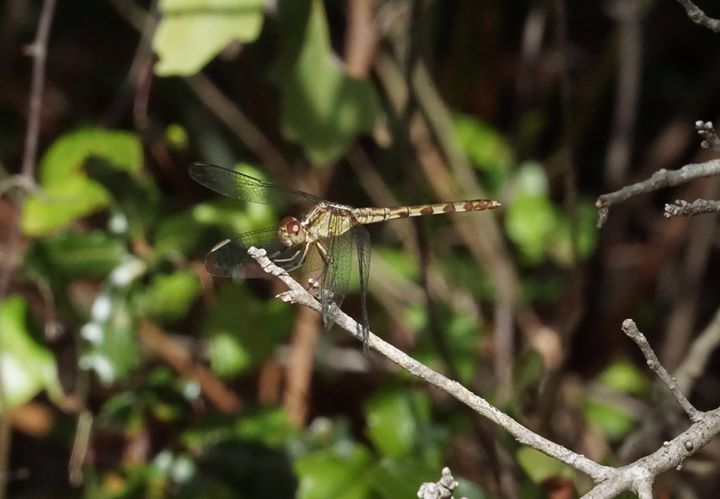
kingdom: Animalia
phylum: Arthropoda
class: Insecta
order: Odonata
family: Libellulidae
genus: Erythrodiplax
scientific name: Erythrodiplax umbrata
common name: Band-winged dragonlet
